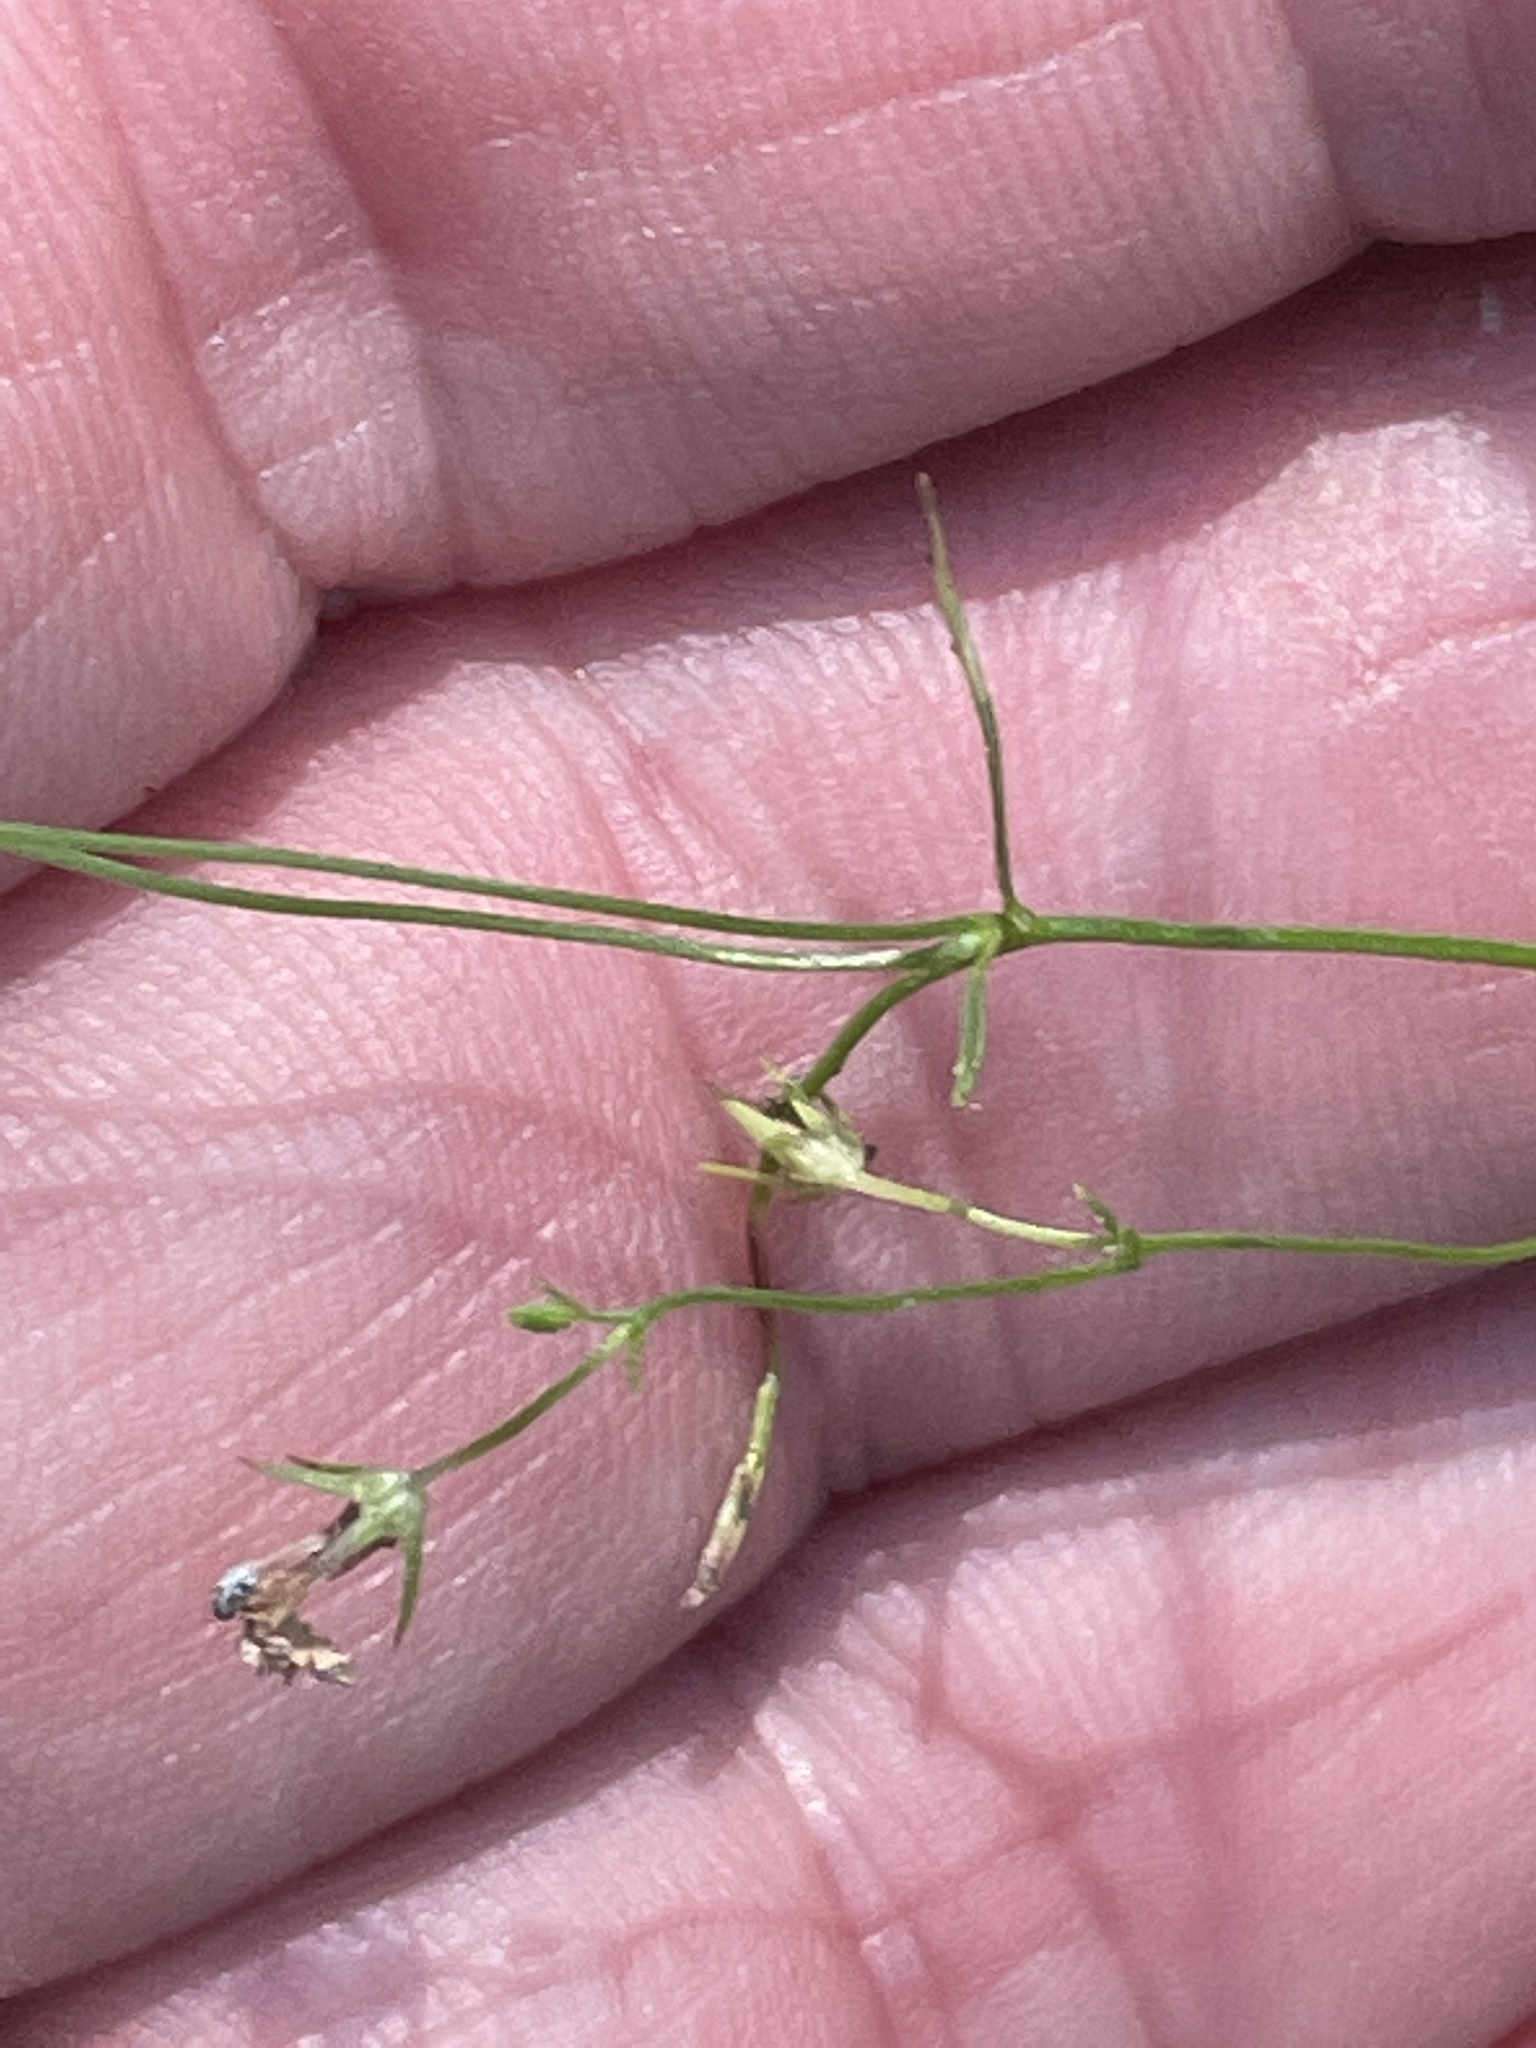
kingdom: Plantae
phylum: Tracheophyta
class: Magnoliopsida
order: Asterales
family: Campanulaceae
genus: Lobelia
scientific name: Lobelia nuttallii
